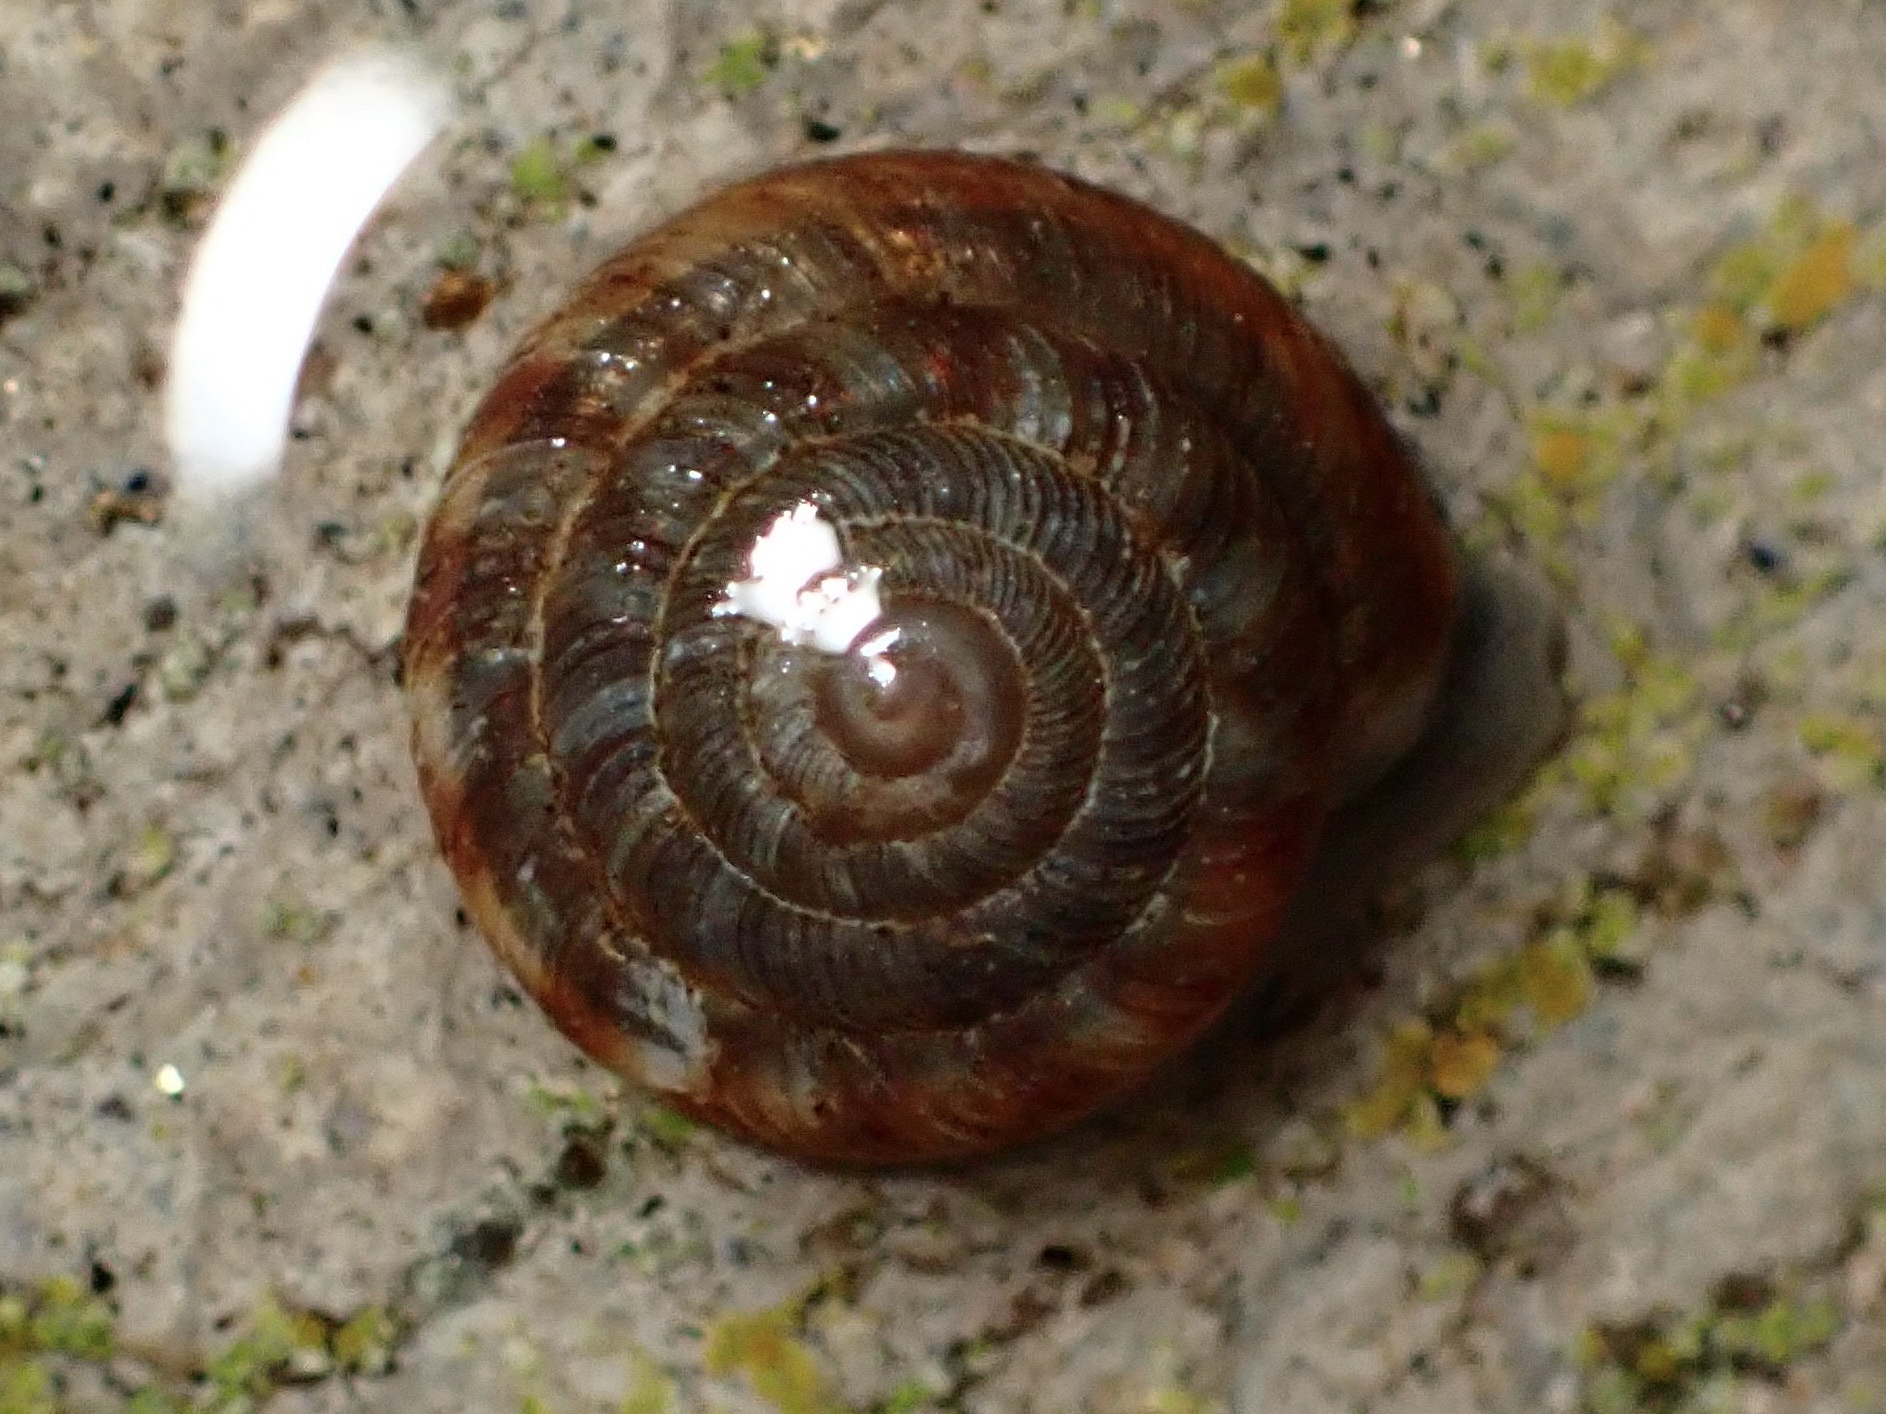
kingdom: Animalia
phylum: Mollusca
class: Gastropoda
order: Stylommatophora
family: Discidae
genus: Discus
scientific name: Discus rotundatus
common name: Rounded snail
